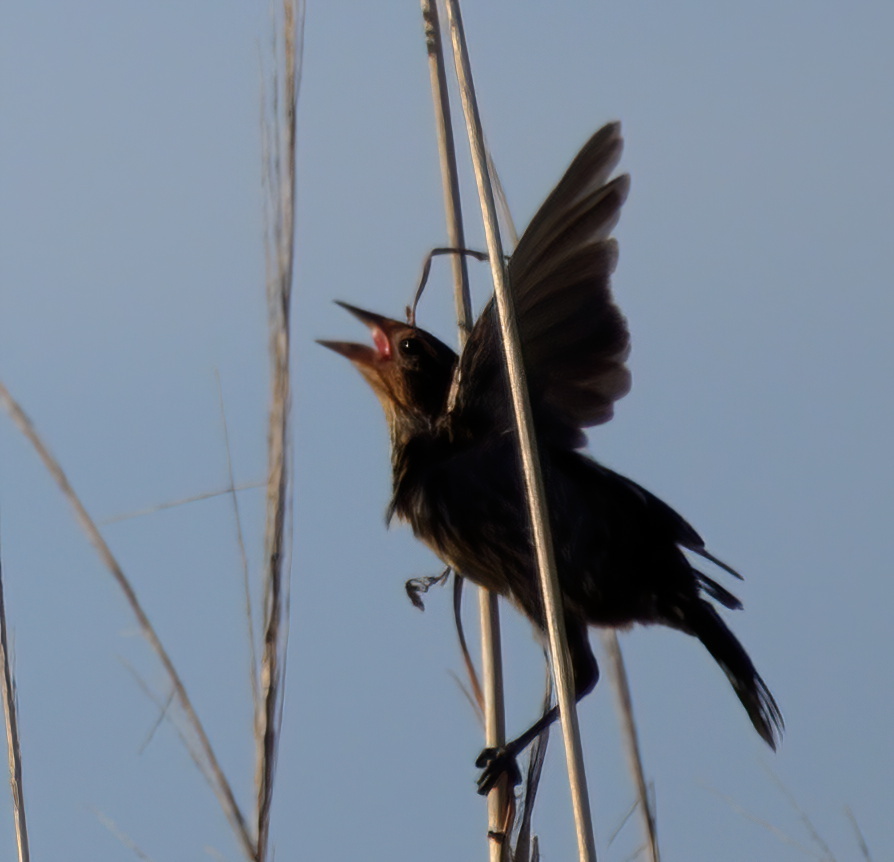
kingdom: Animalia
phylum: Chordata
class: Aves
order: Passeriformes
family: Icteridae
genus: Agelaius
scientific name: Agelaius phoeniceus
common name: Red-winged blackbird
